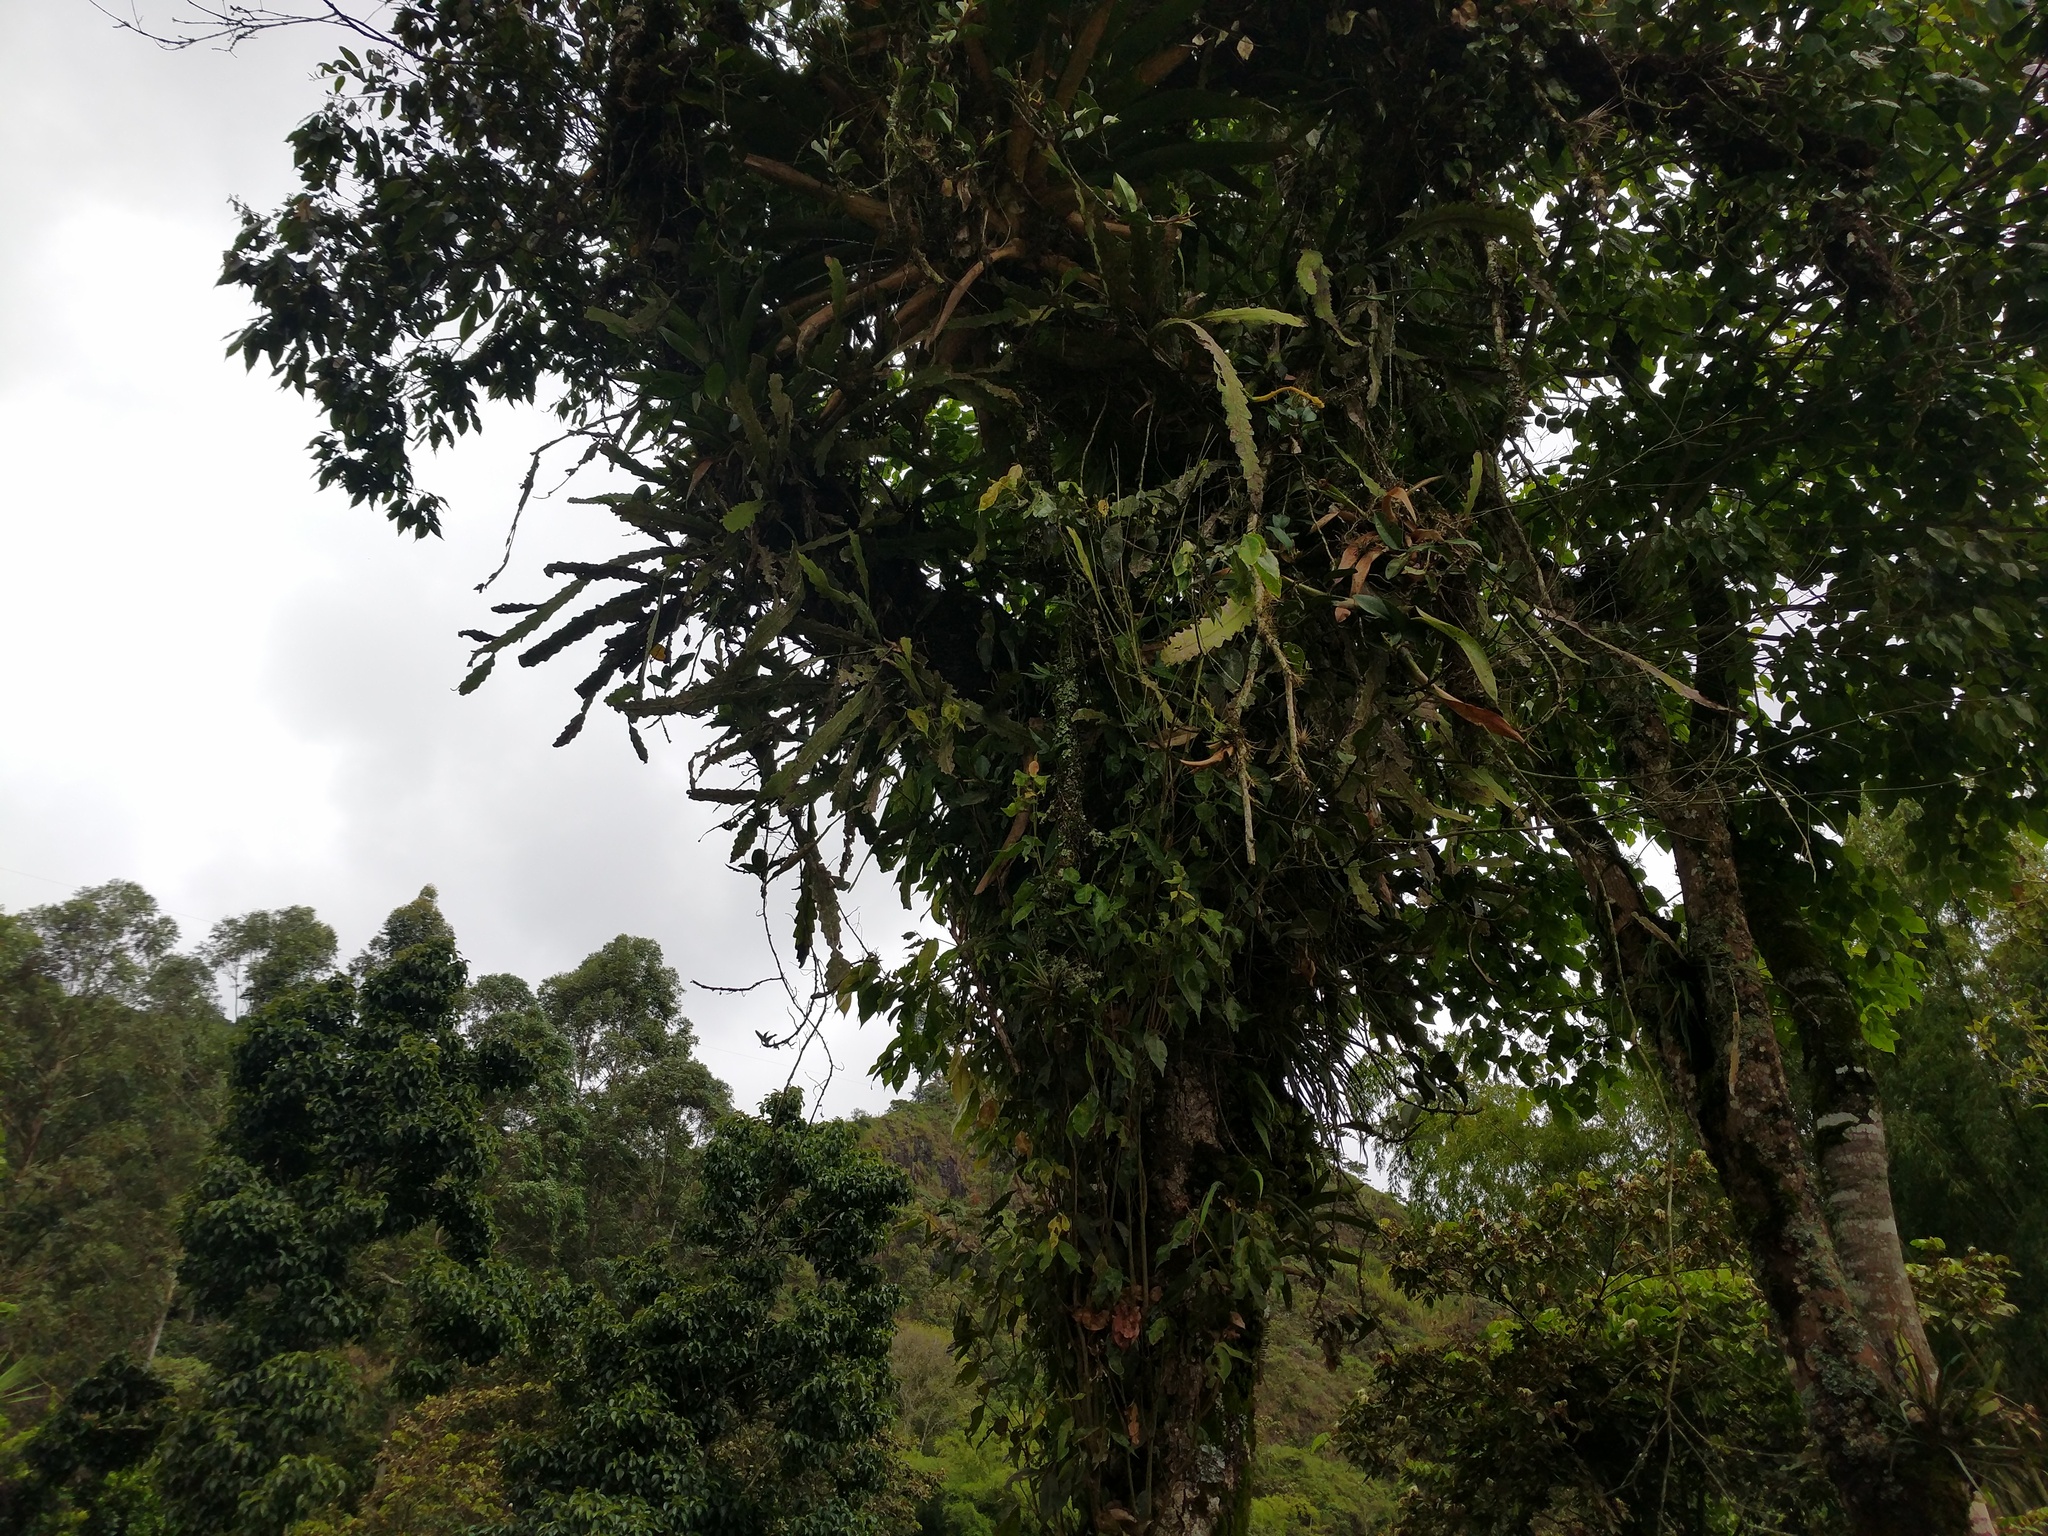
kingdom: Plantae
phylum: Tracheophyta
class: Magnoliopsida
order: Caryophyllales
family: Cactaceae
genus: Epiphyllum
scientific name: Epiphyllum phyllanthus
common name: Climbing cactus
